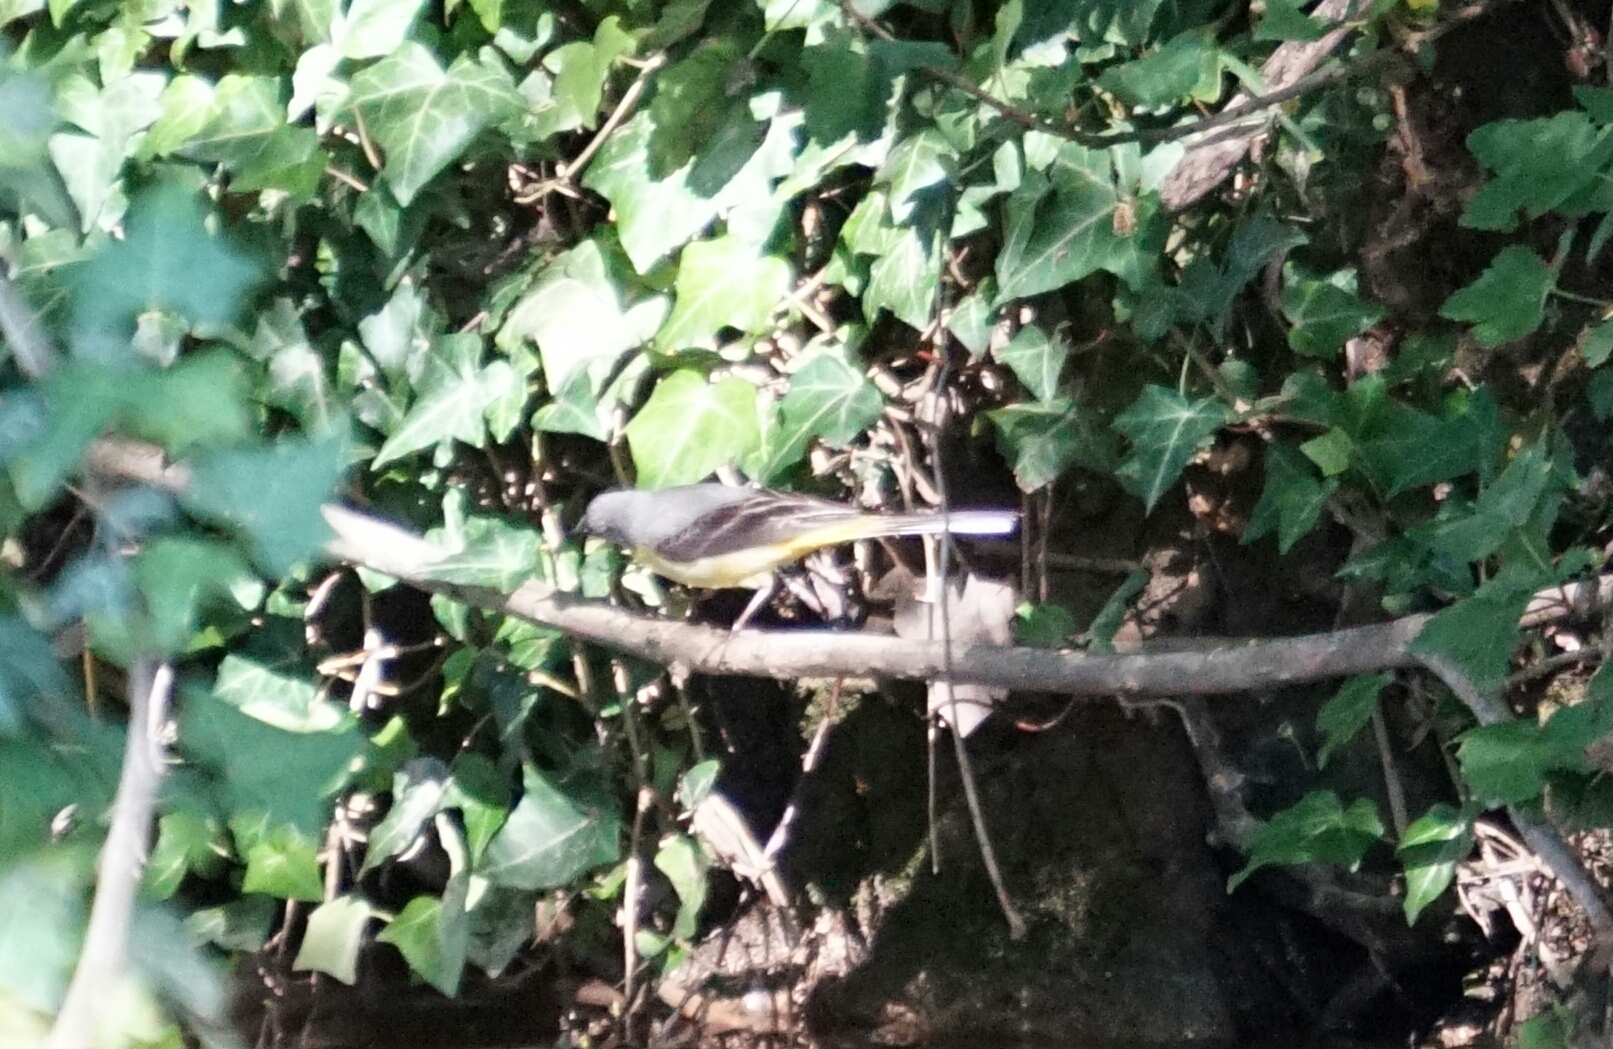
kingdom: Animalia
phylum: Chordata
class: Aves
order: Passeriformes
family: Motacillidae
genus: Motacilla
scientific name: Motacilla cinerea
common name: Grey wagtail
